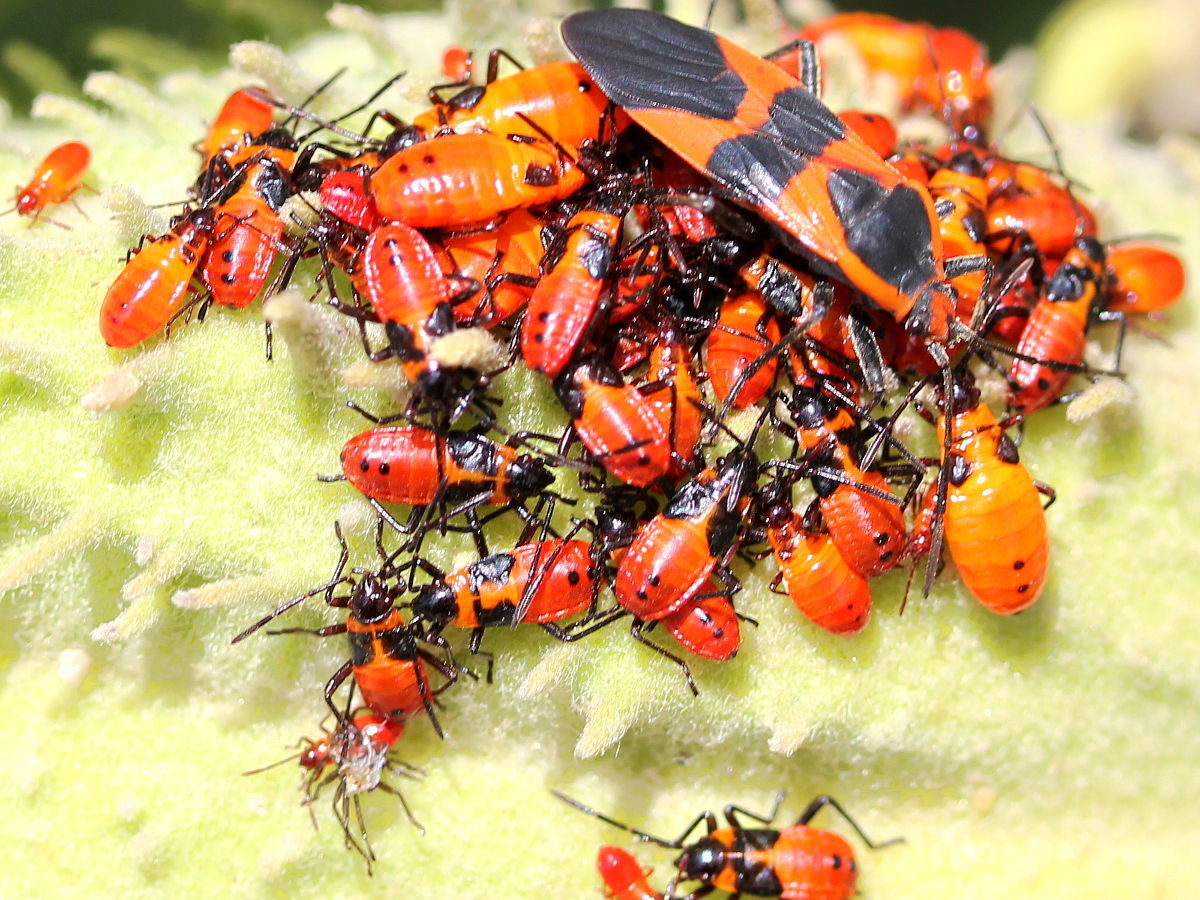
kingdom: Animalia
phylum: Arthropoda
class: Insecta
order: Hemiptera
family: Lygaeidae
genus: Oncopeltus
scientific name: Oncopeltus fasciatus
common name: Large milkweed bug
